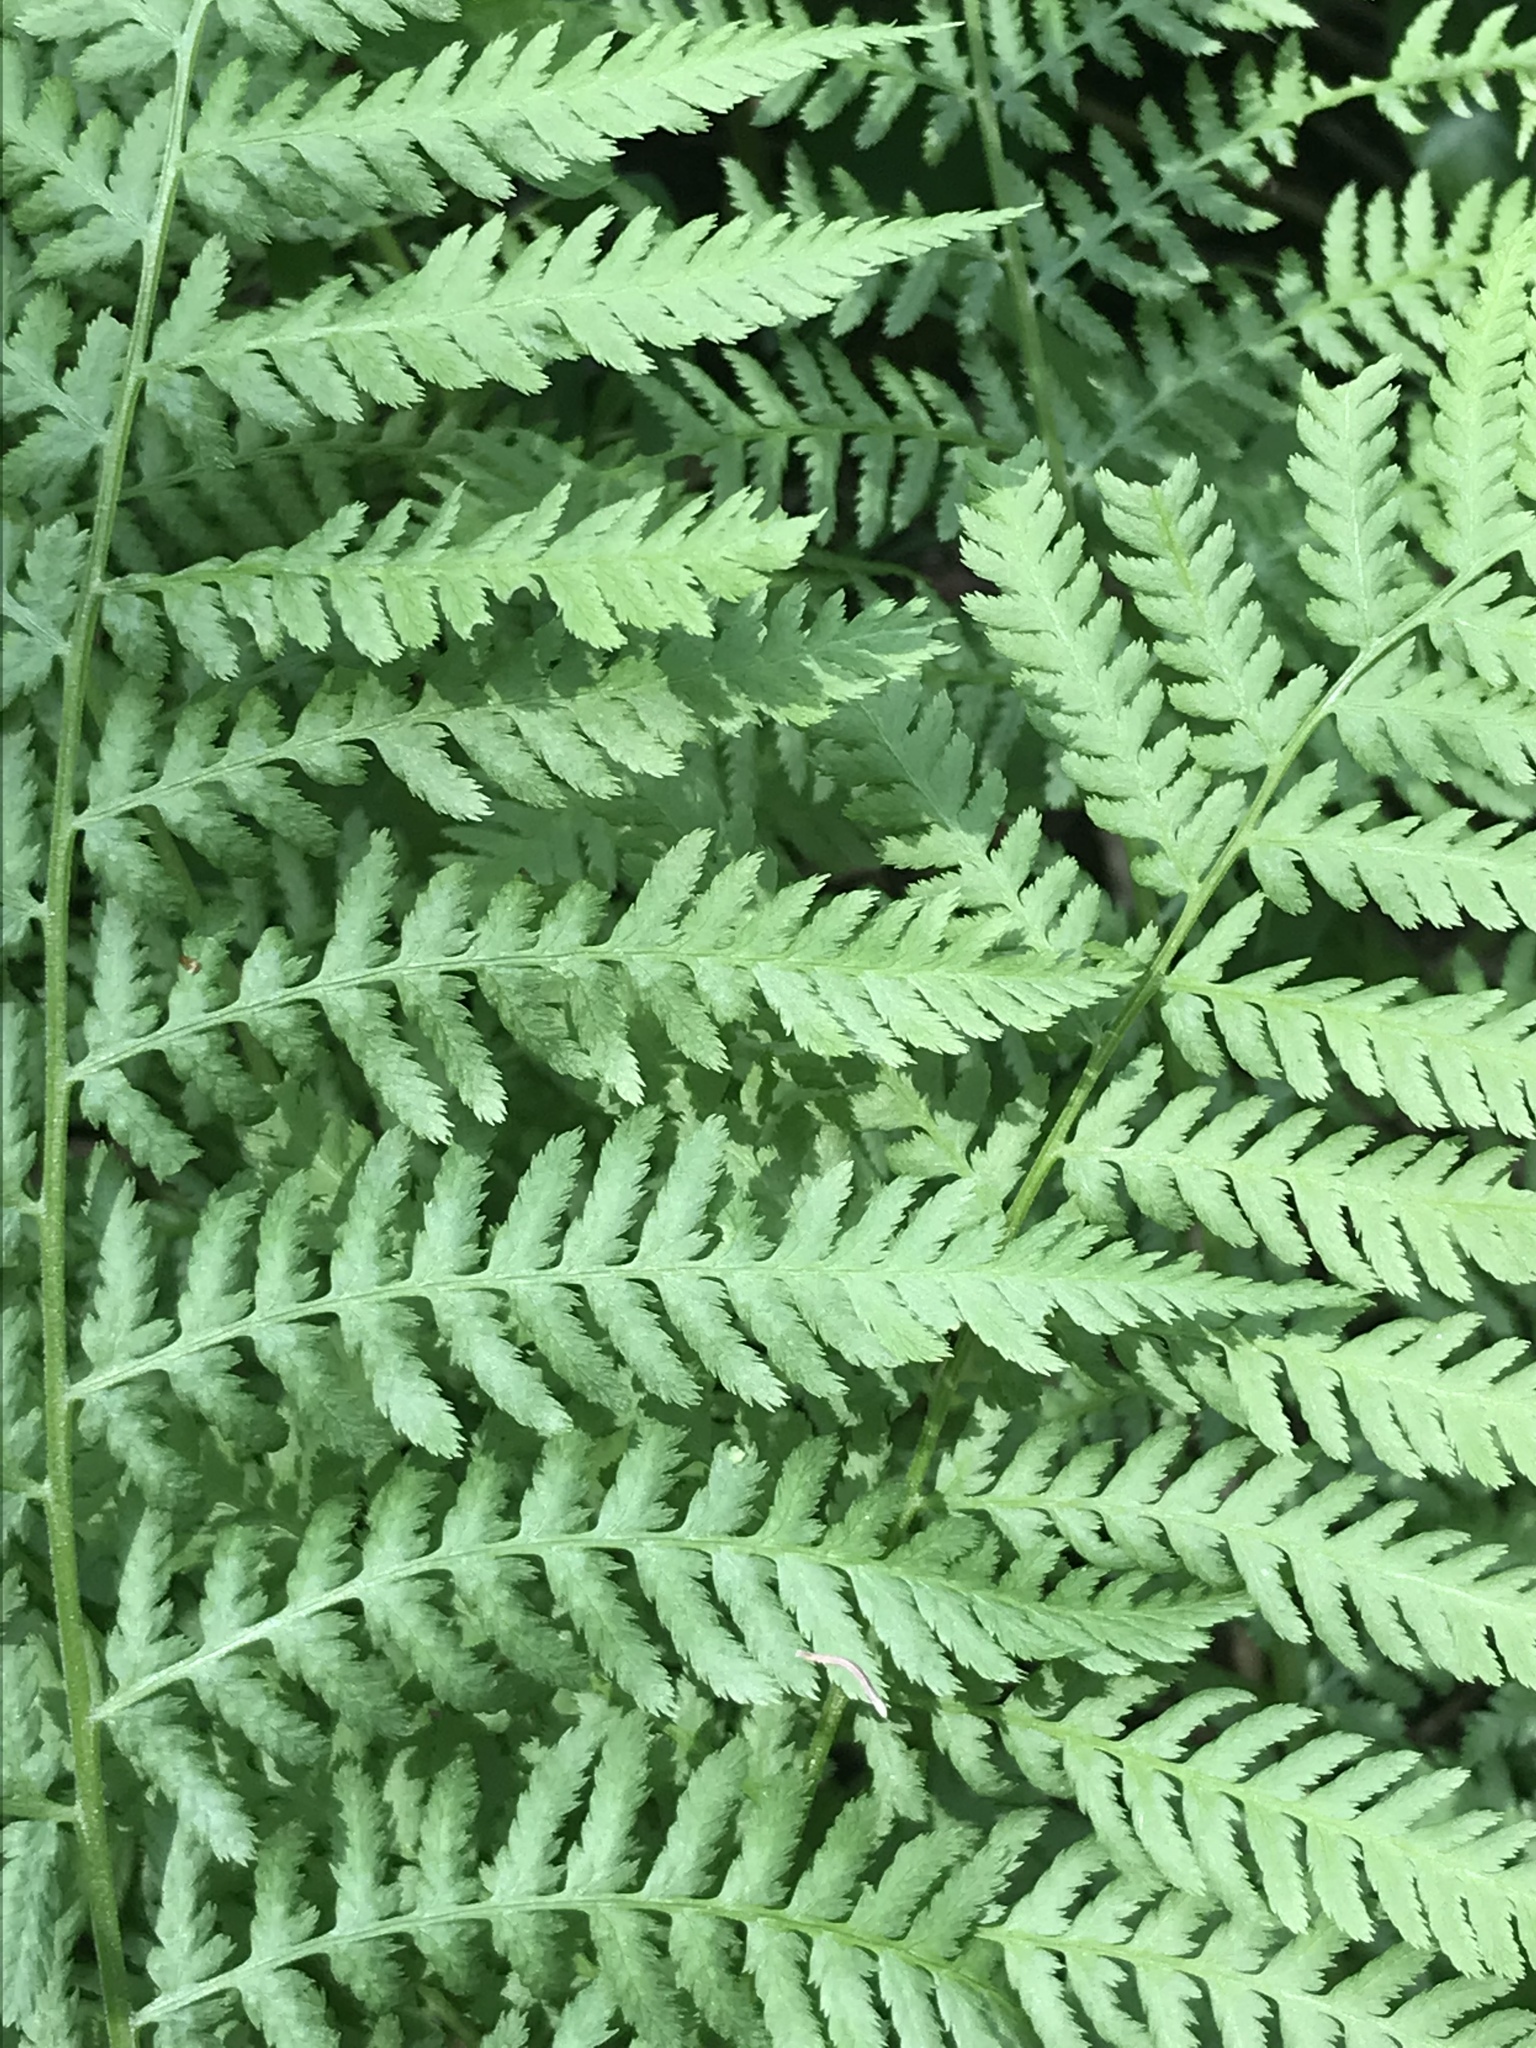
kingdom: Plantae
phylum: Tracheophyta
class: Polypodiopsida
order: Polypodiales
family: Athyriaceae
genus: Athyrium
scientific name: Athyrium cyclosorum
